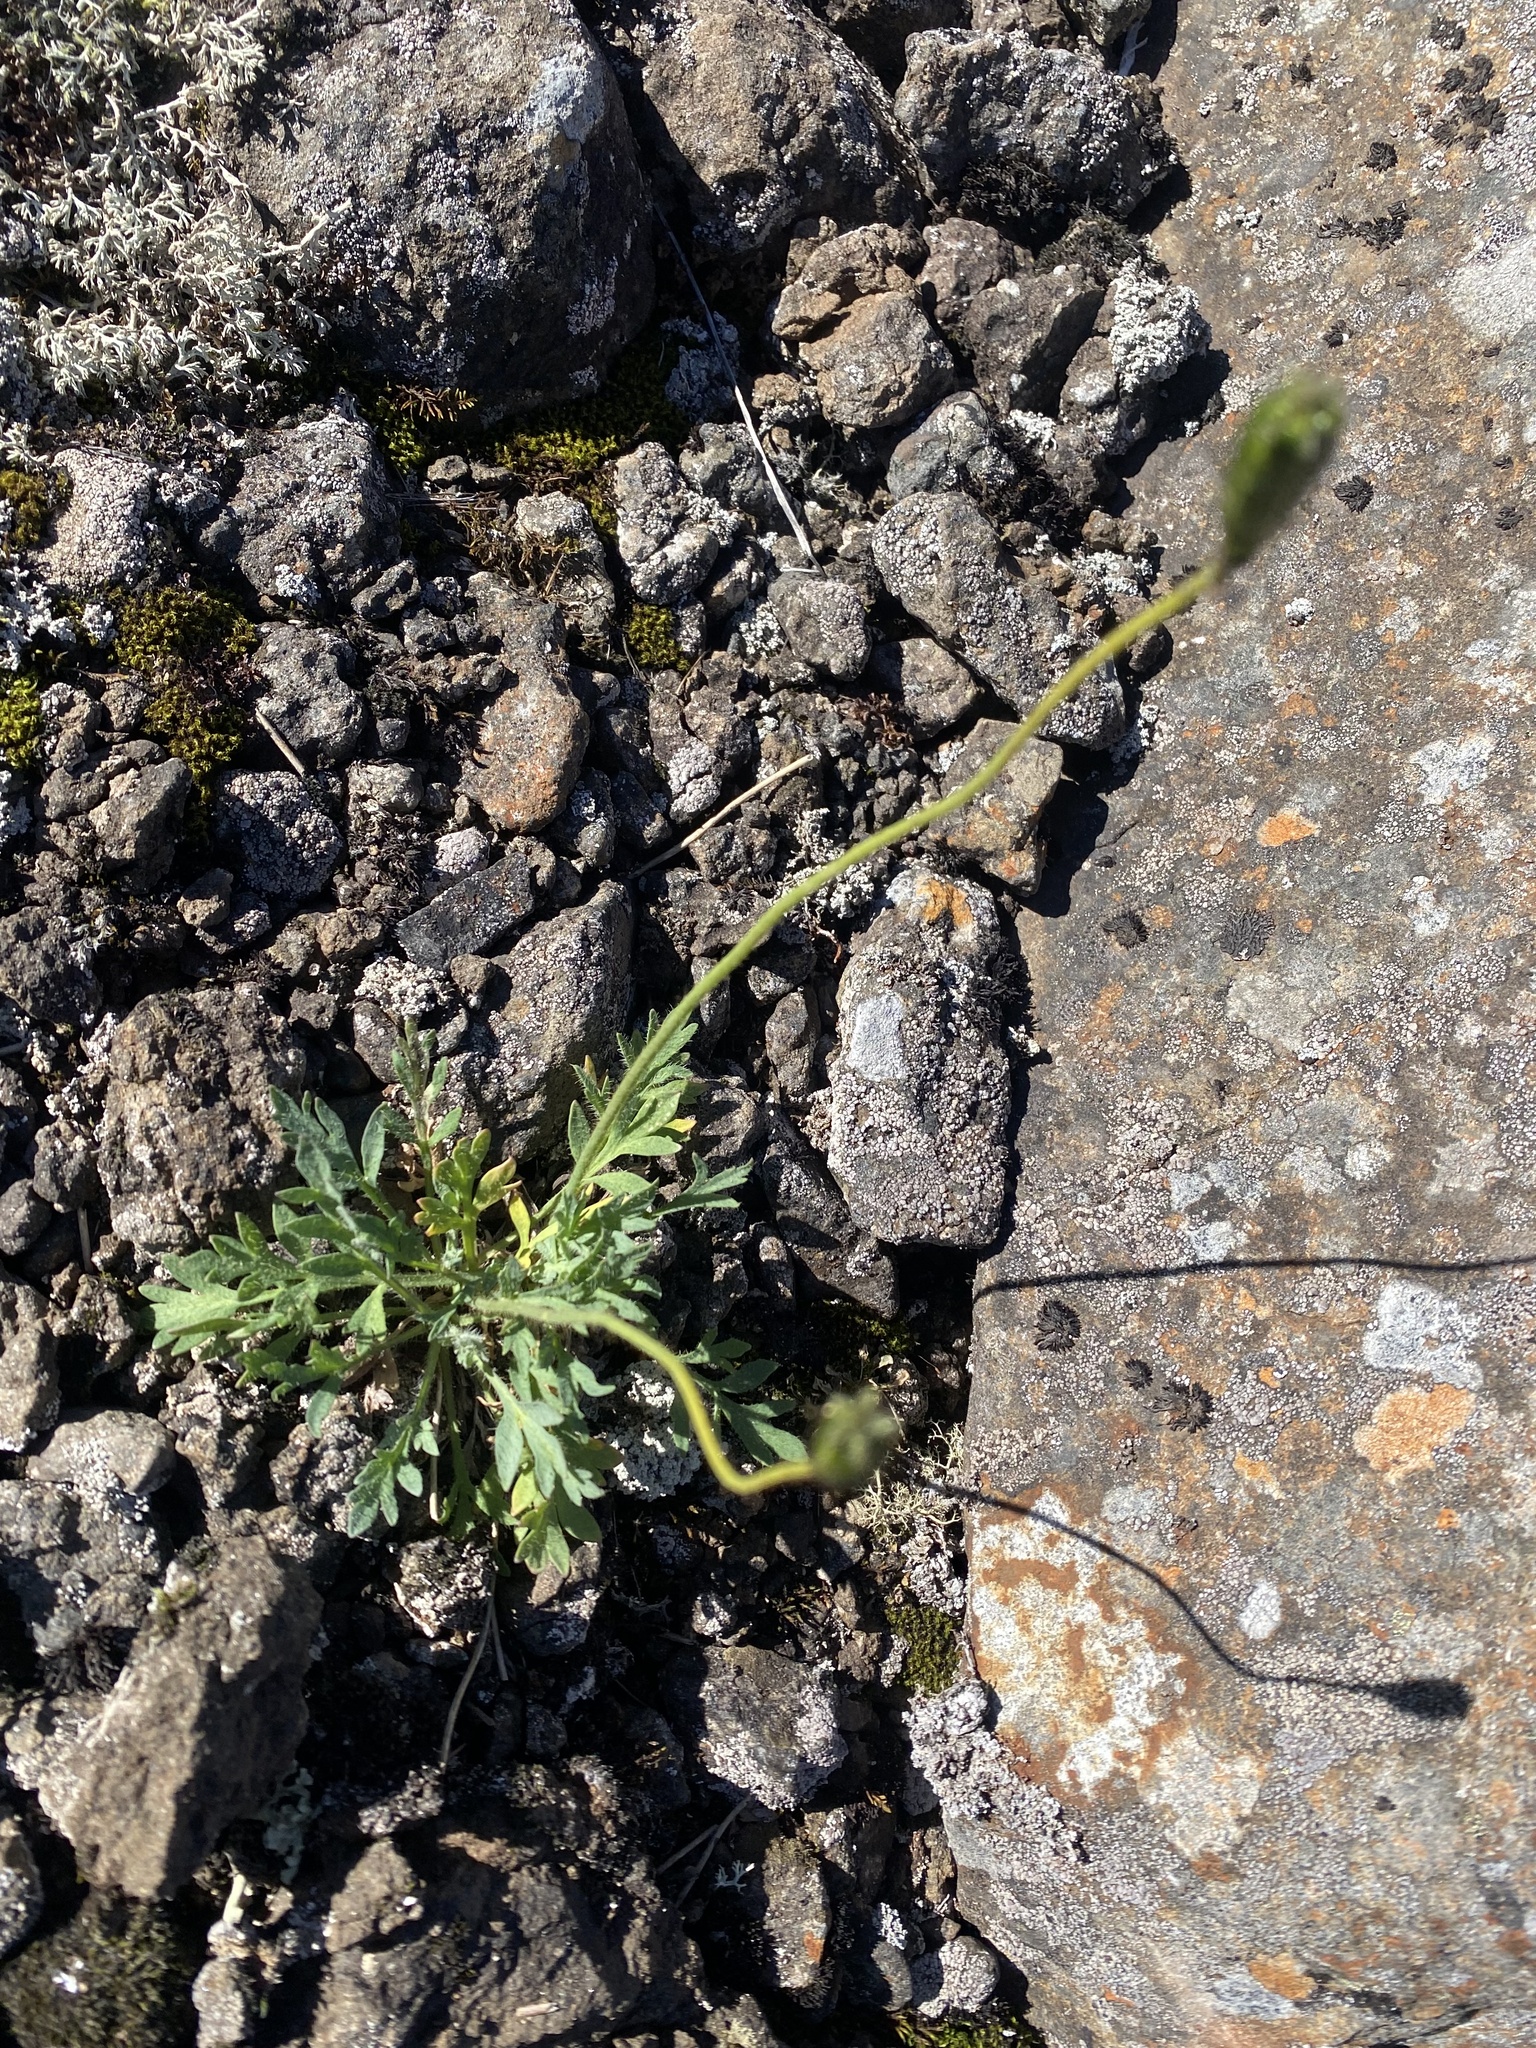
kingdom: Plantae
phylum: Tracheophyta
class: Magnoliopsida
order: Ranunculales
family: Papaveraceae
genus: Papaver
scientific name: Papaver variegatum
